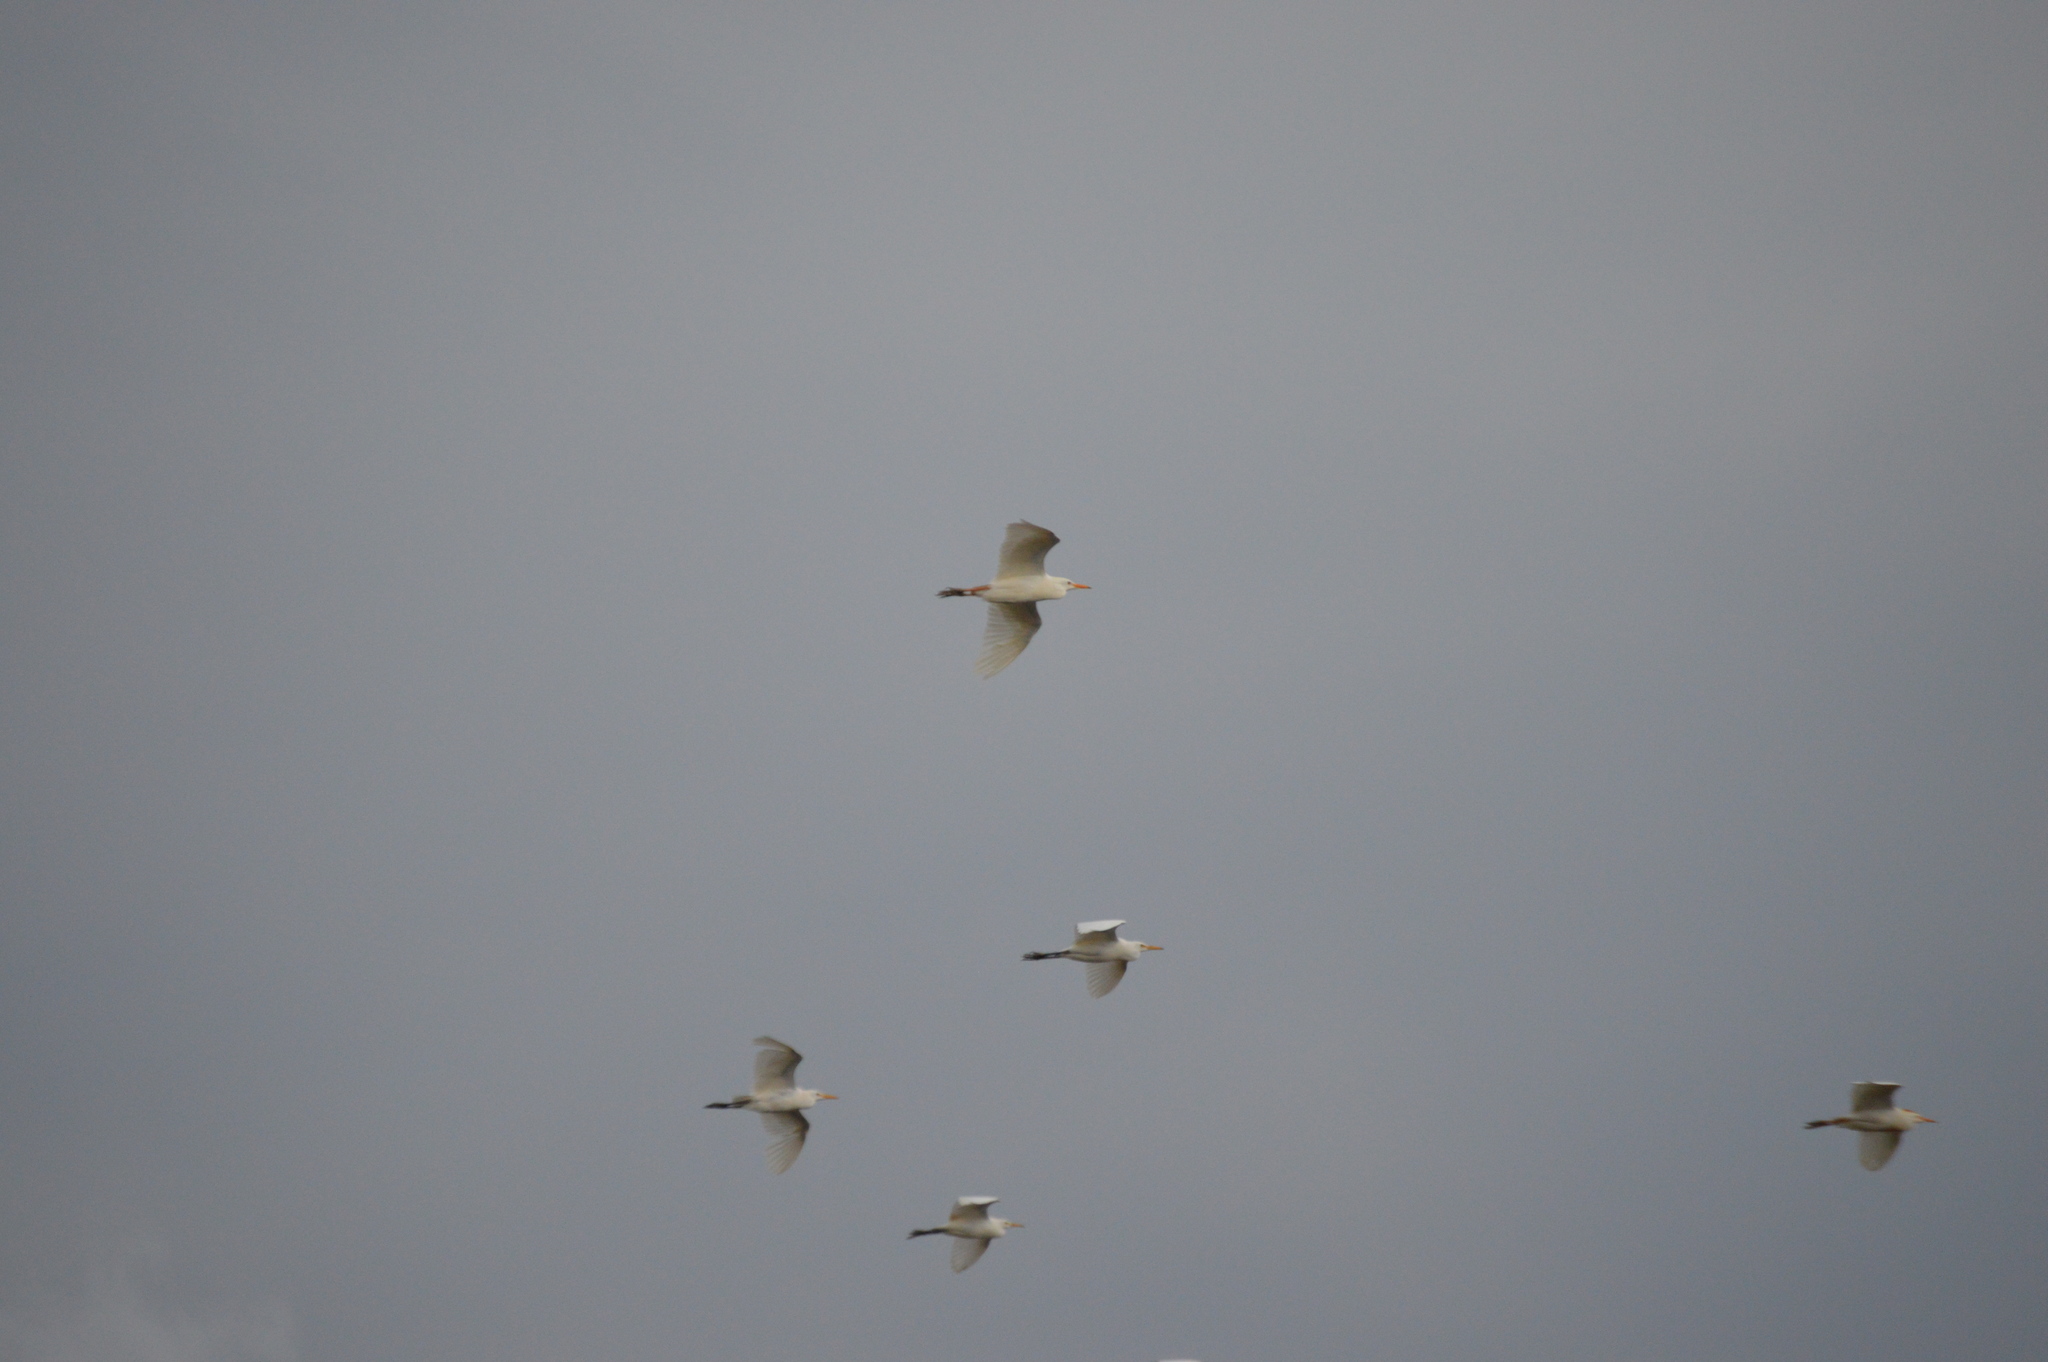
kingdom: Animalia
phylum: Chordata
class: Aves
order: Pelecaniformes
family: Ardeidae
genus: Bubulcus
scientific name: Bubulcus ibis
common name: Cattle egret
